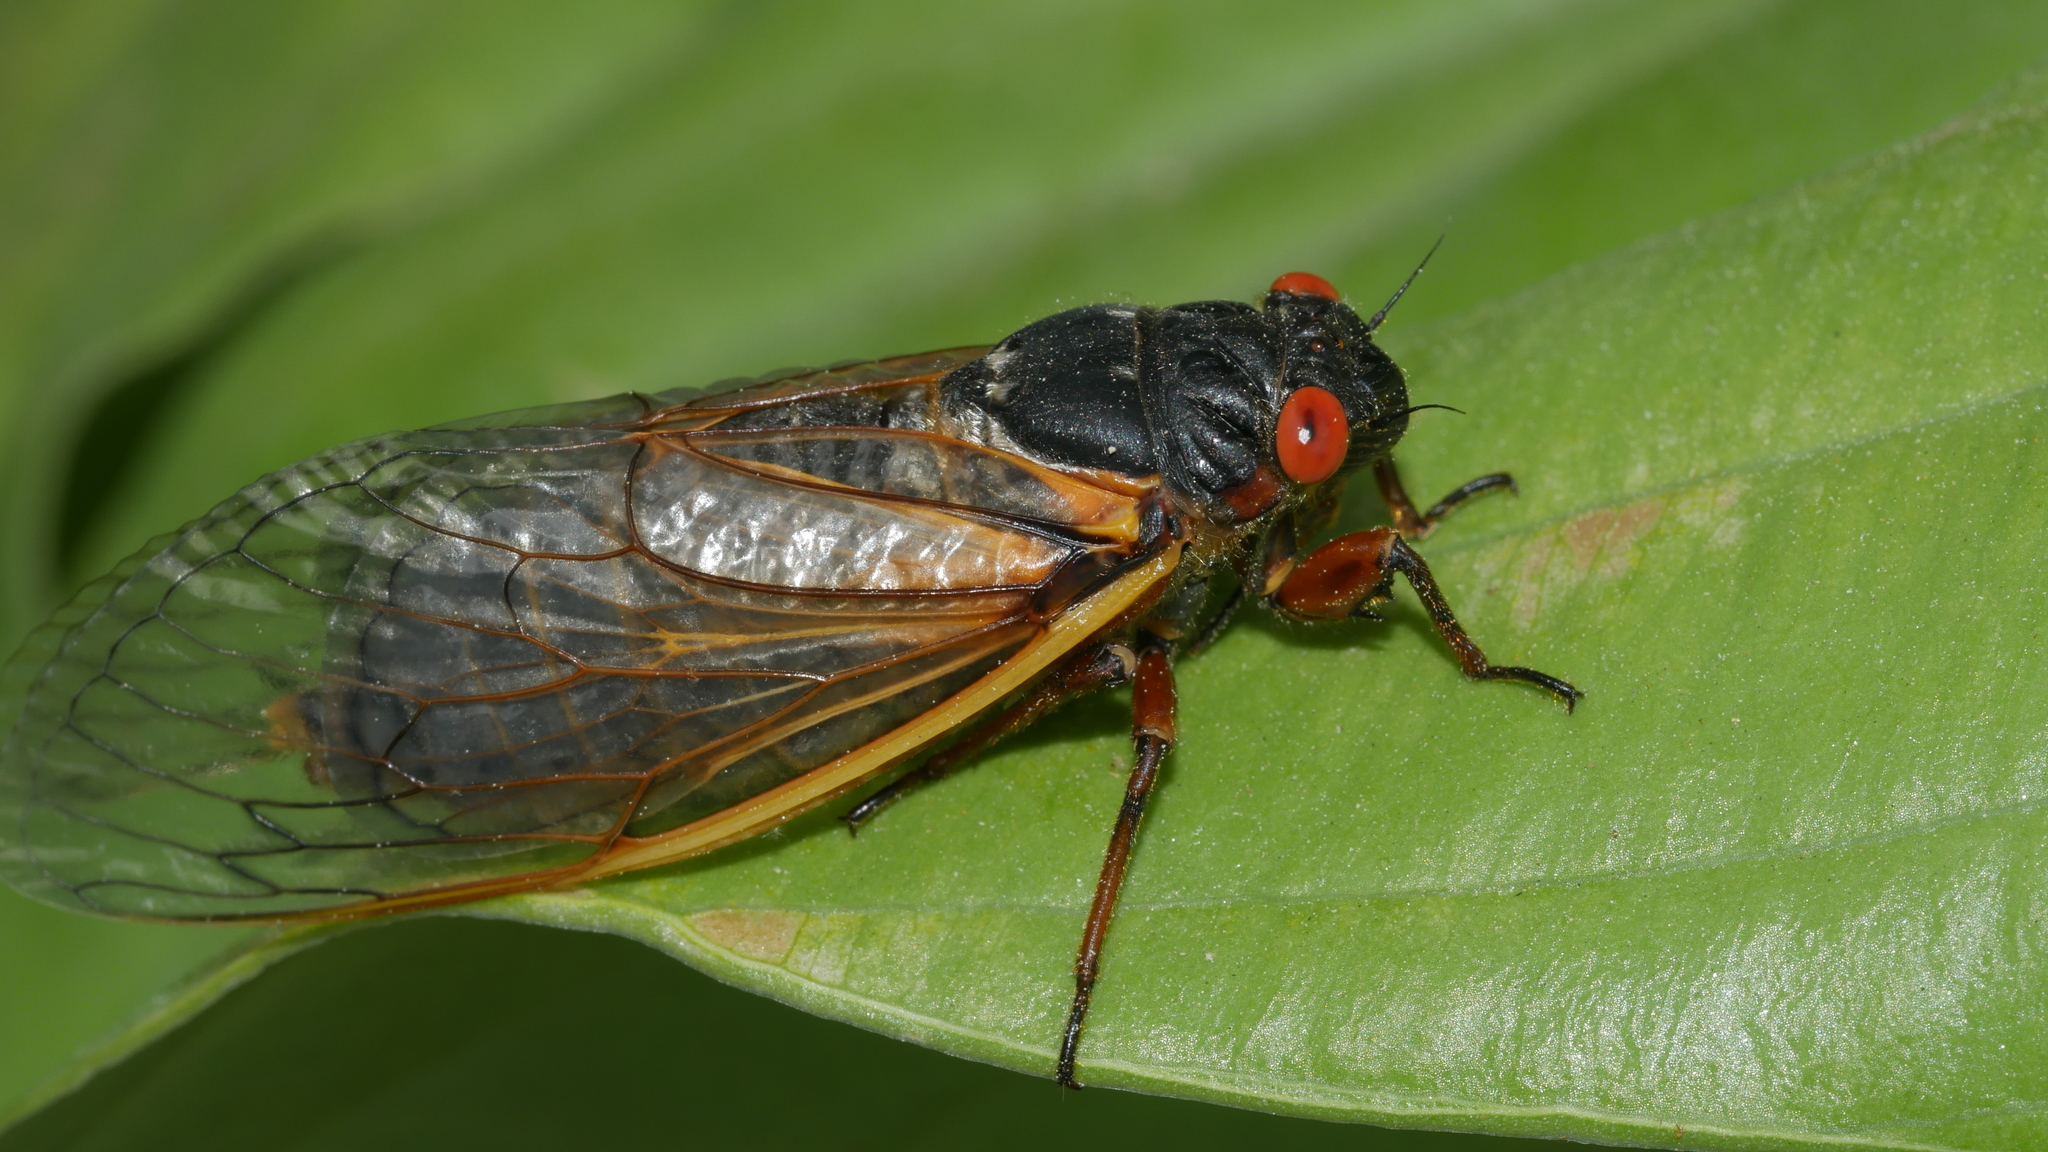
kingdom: Animalia
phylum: Arthropoda
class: Insecta
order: Hemiptera
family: Cicadidae
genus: Magicicada
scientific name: Magicicada septendecim
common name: Periodical cicada
